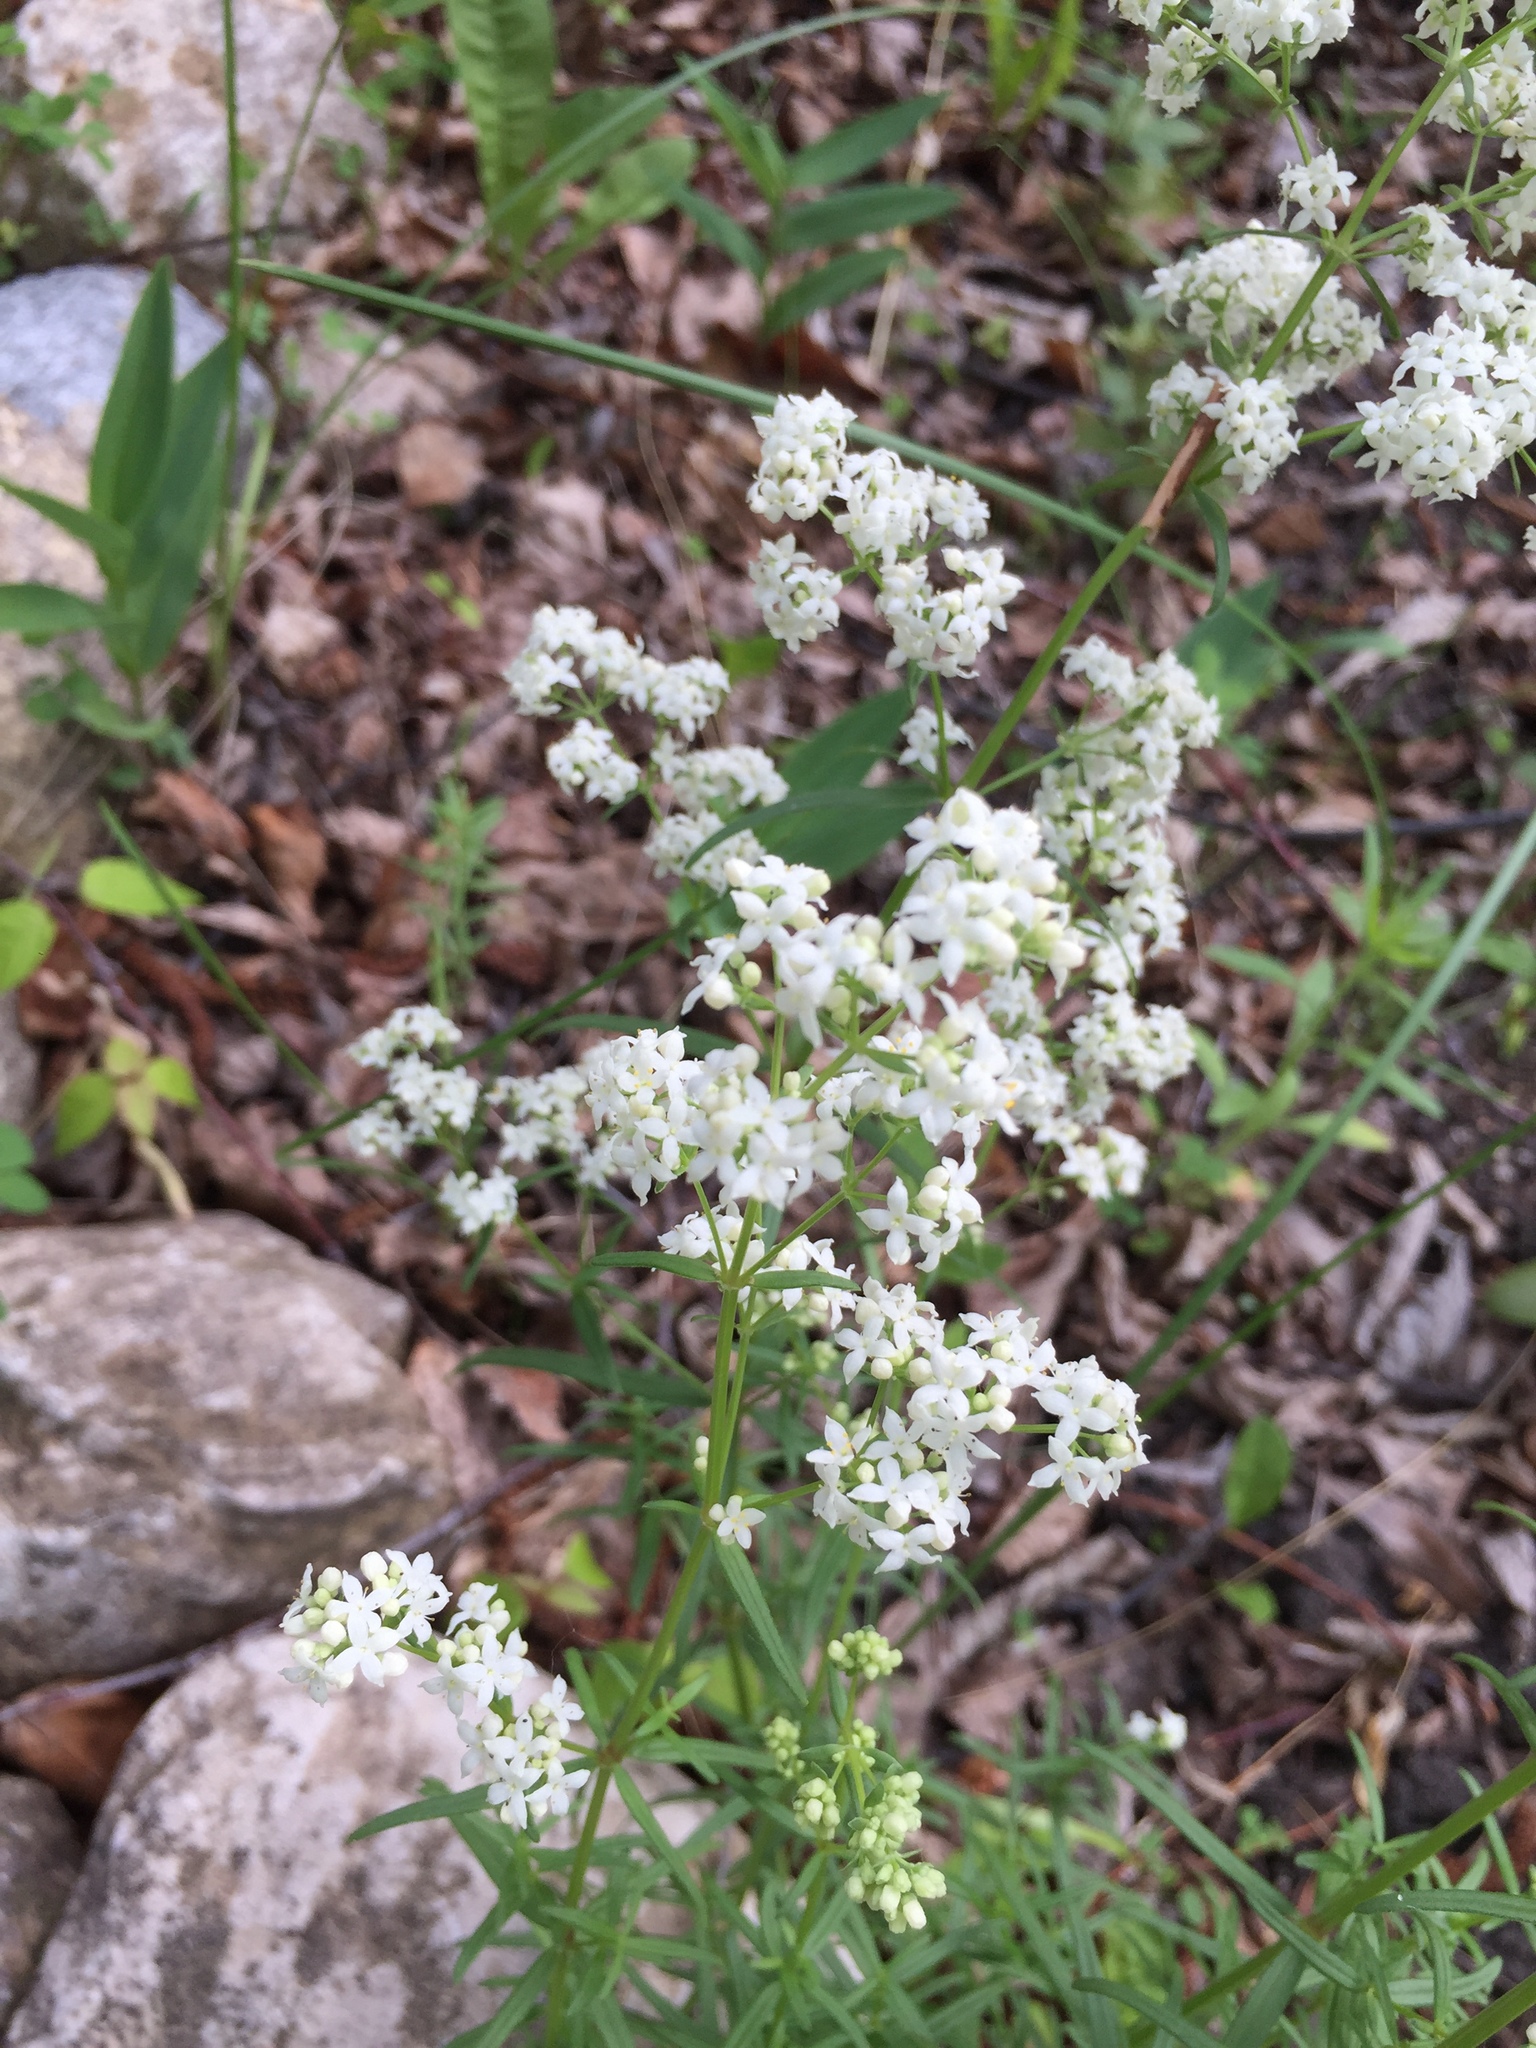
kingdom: Plantae
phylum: Tracheophyta
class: Magnoliopsida
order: Gentianales
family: Rubiaceae
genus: Galium
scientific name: Galium boreale
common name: Northern bedstraw
